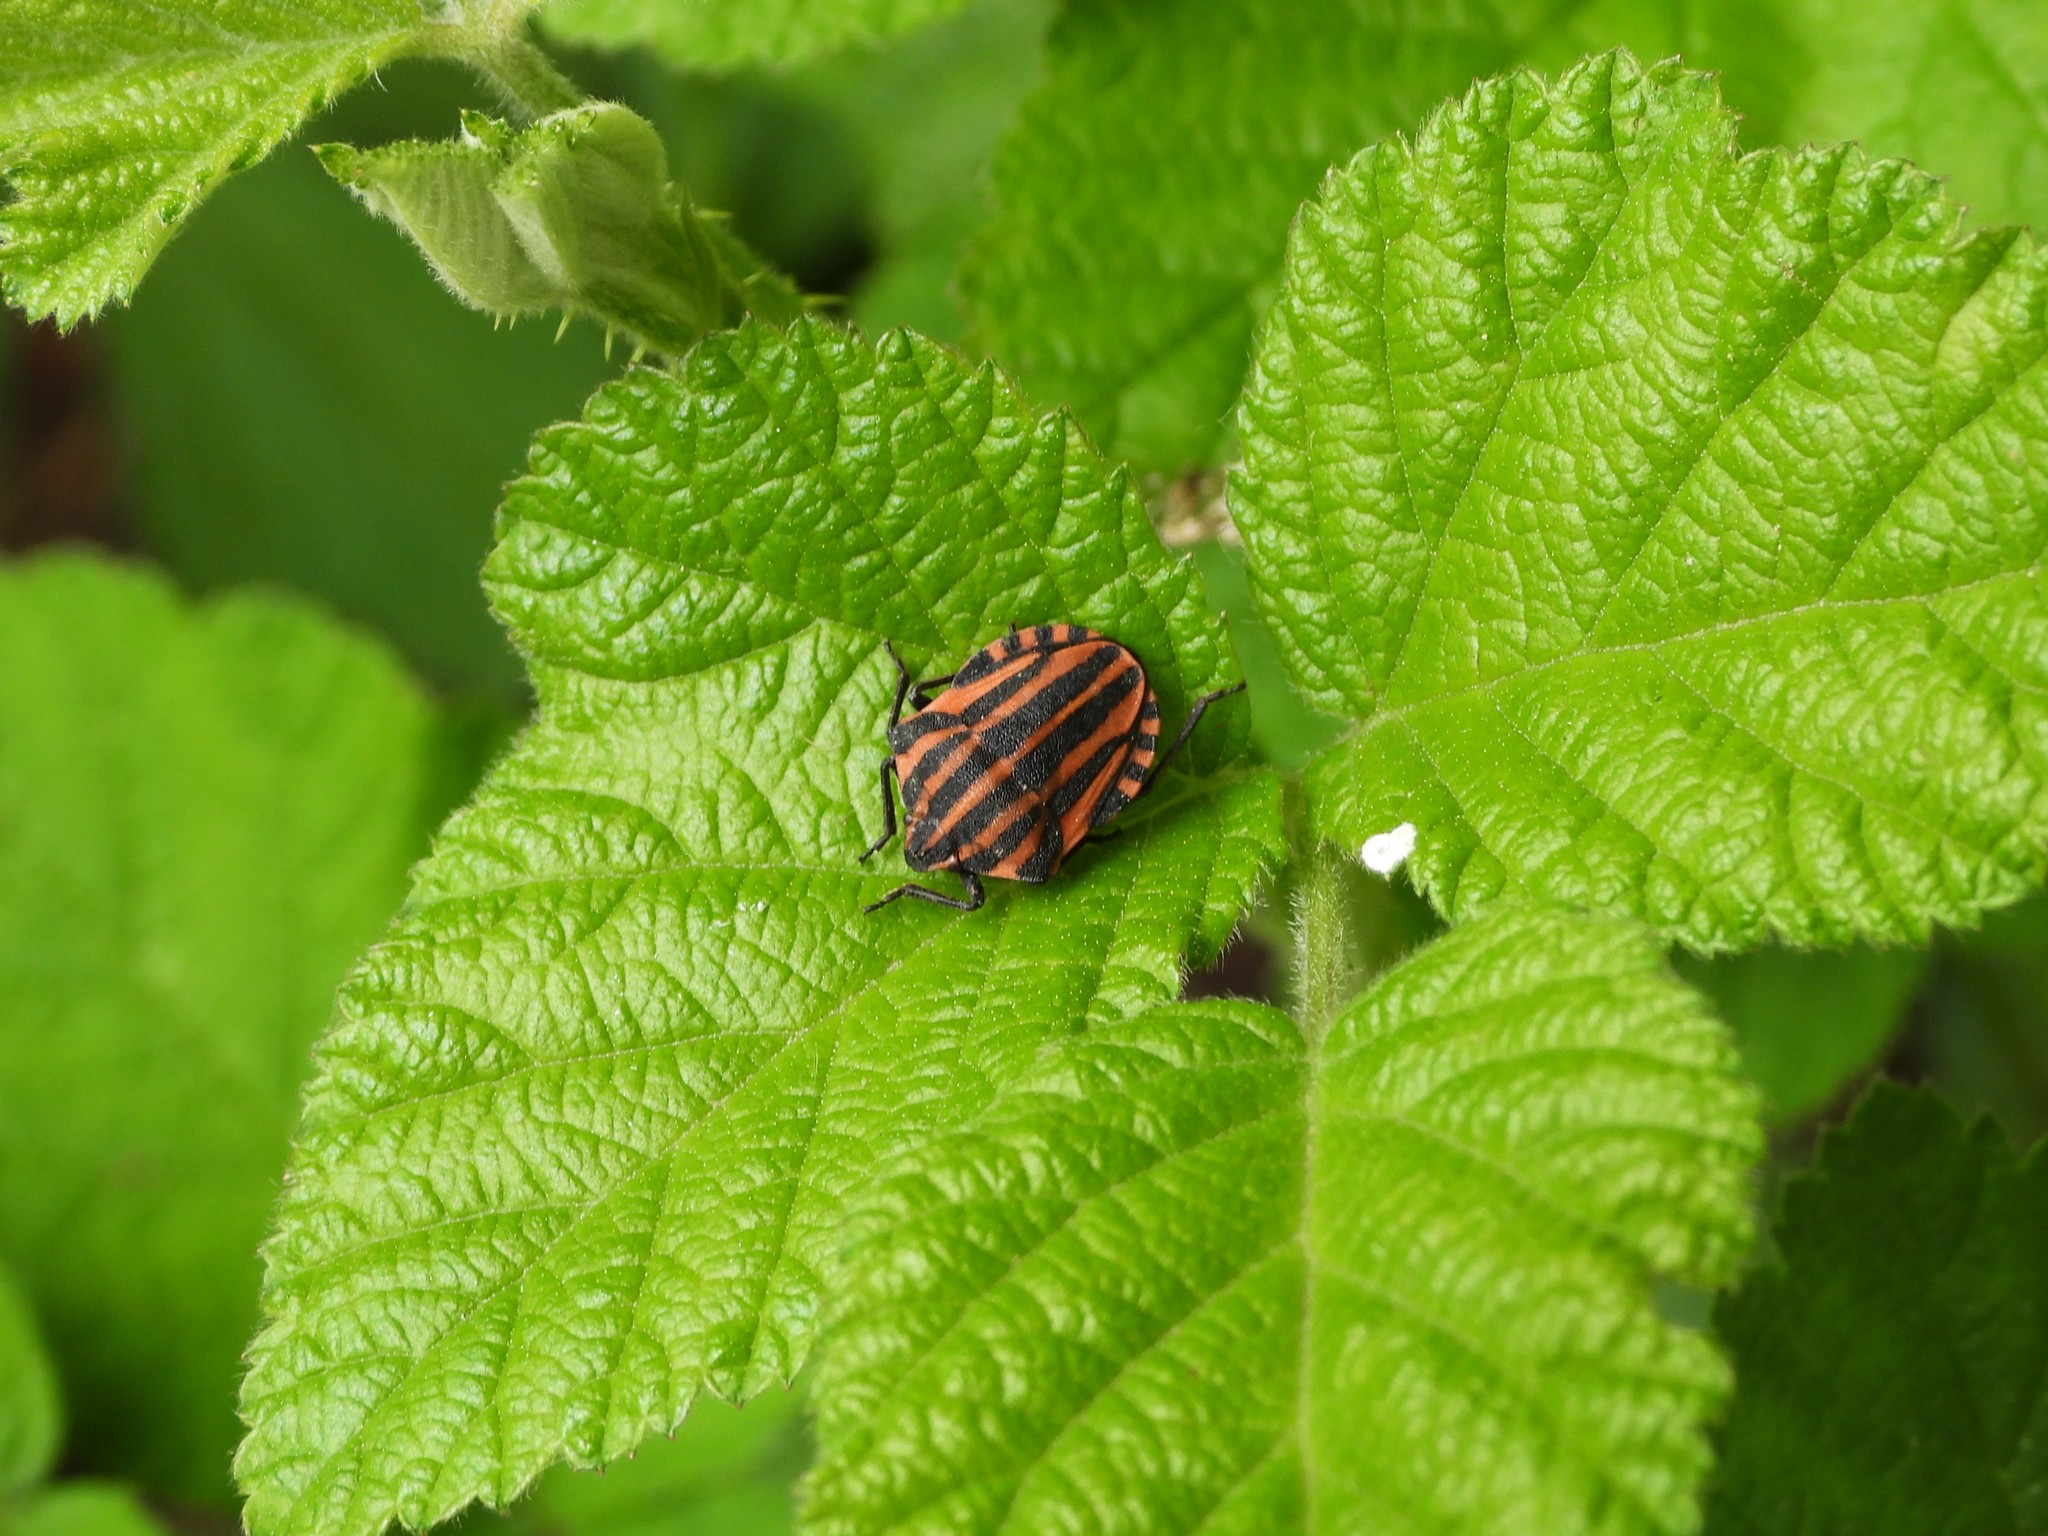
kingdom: Animalia
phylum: Arthropoda
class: Insecta
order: Hemiptera
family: Pentatomidae
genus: Graphosoma
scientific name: Graphosoma italicum
